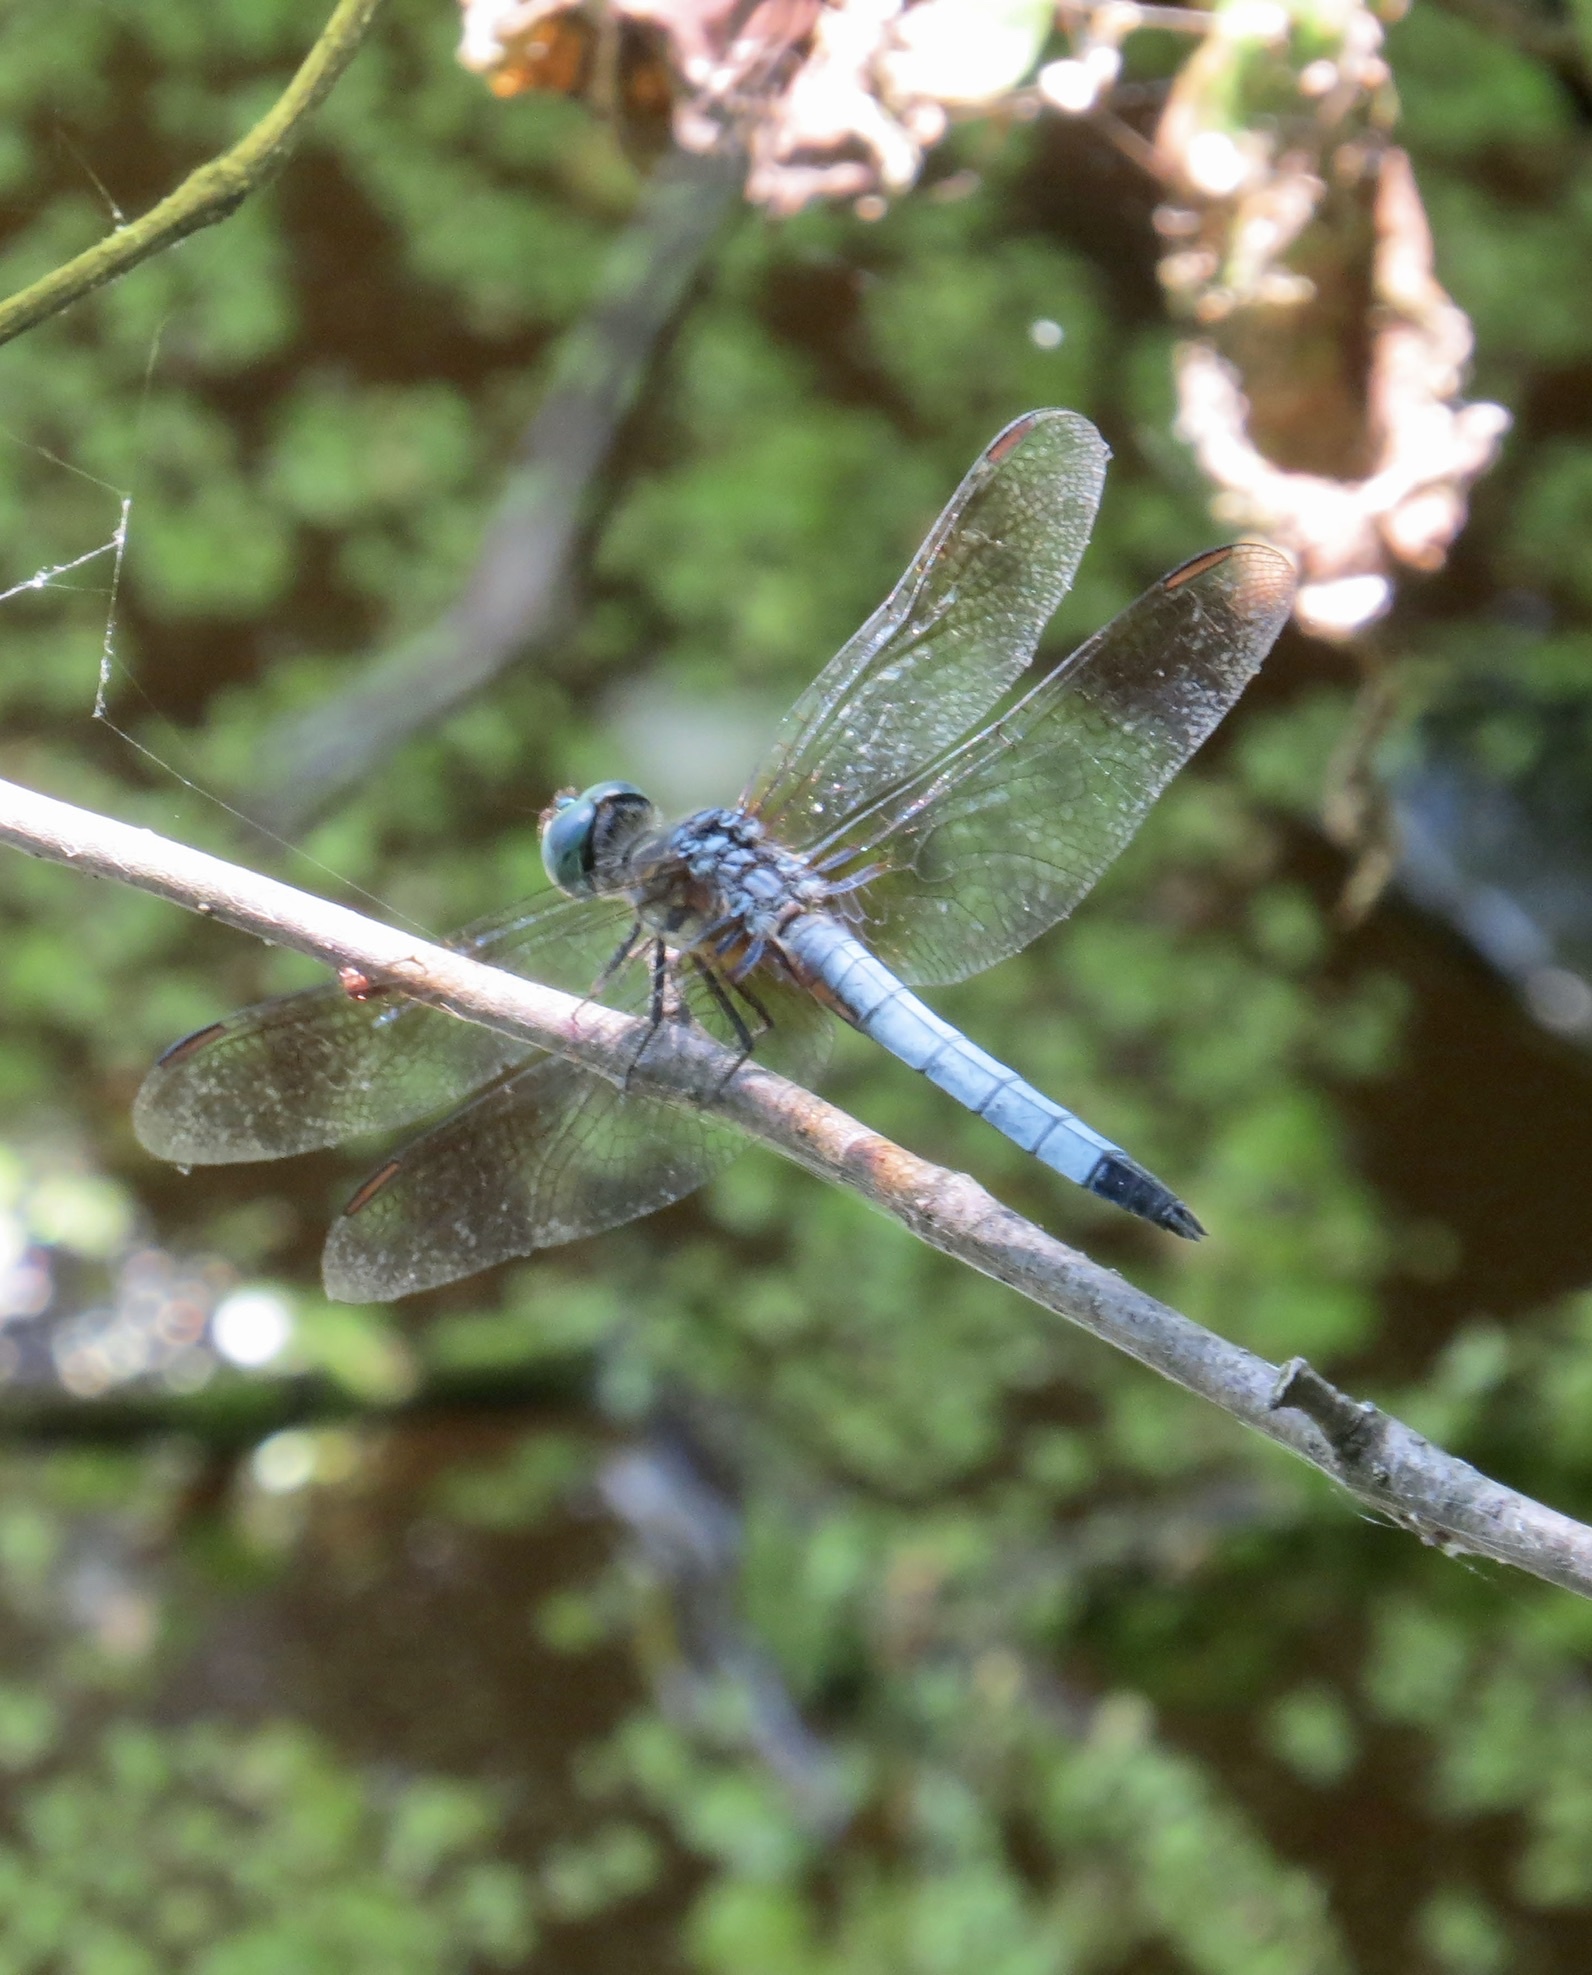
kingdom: Animalia
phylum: Arthropoda
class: Insecta
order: Odonata
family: Libellulidae
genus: Pachydiplax
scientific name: Pachydiplax longipennis
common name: Blue dasher
